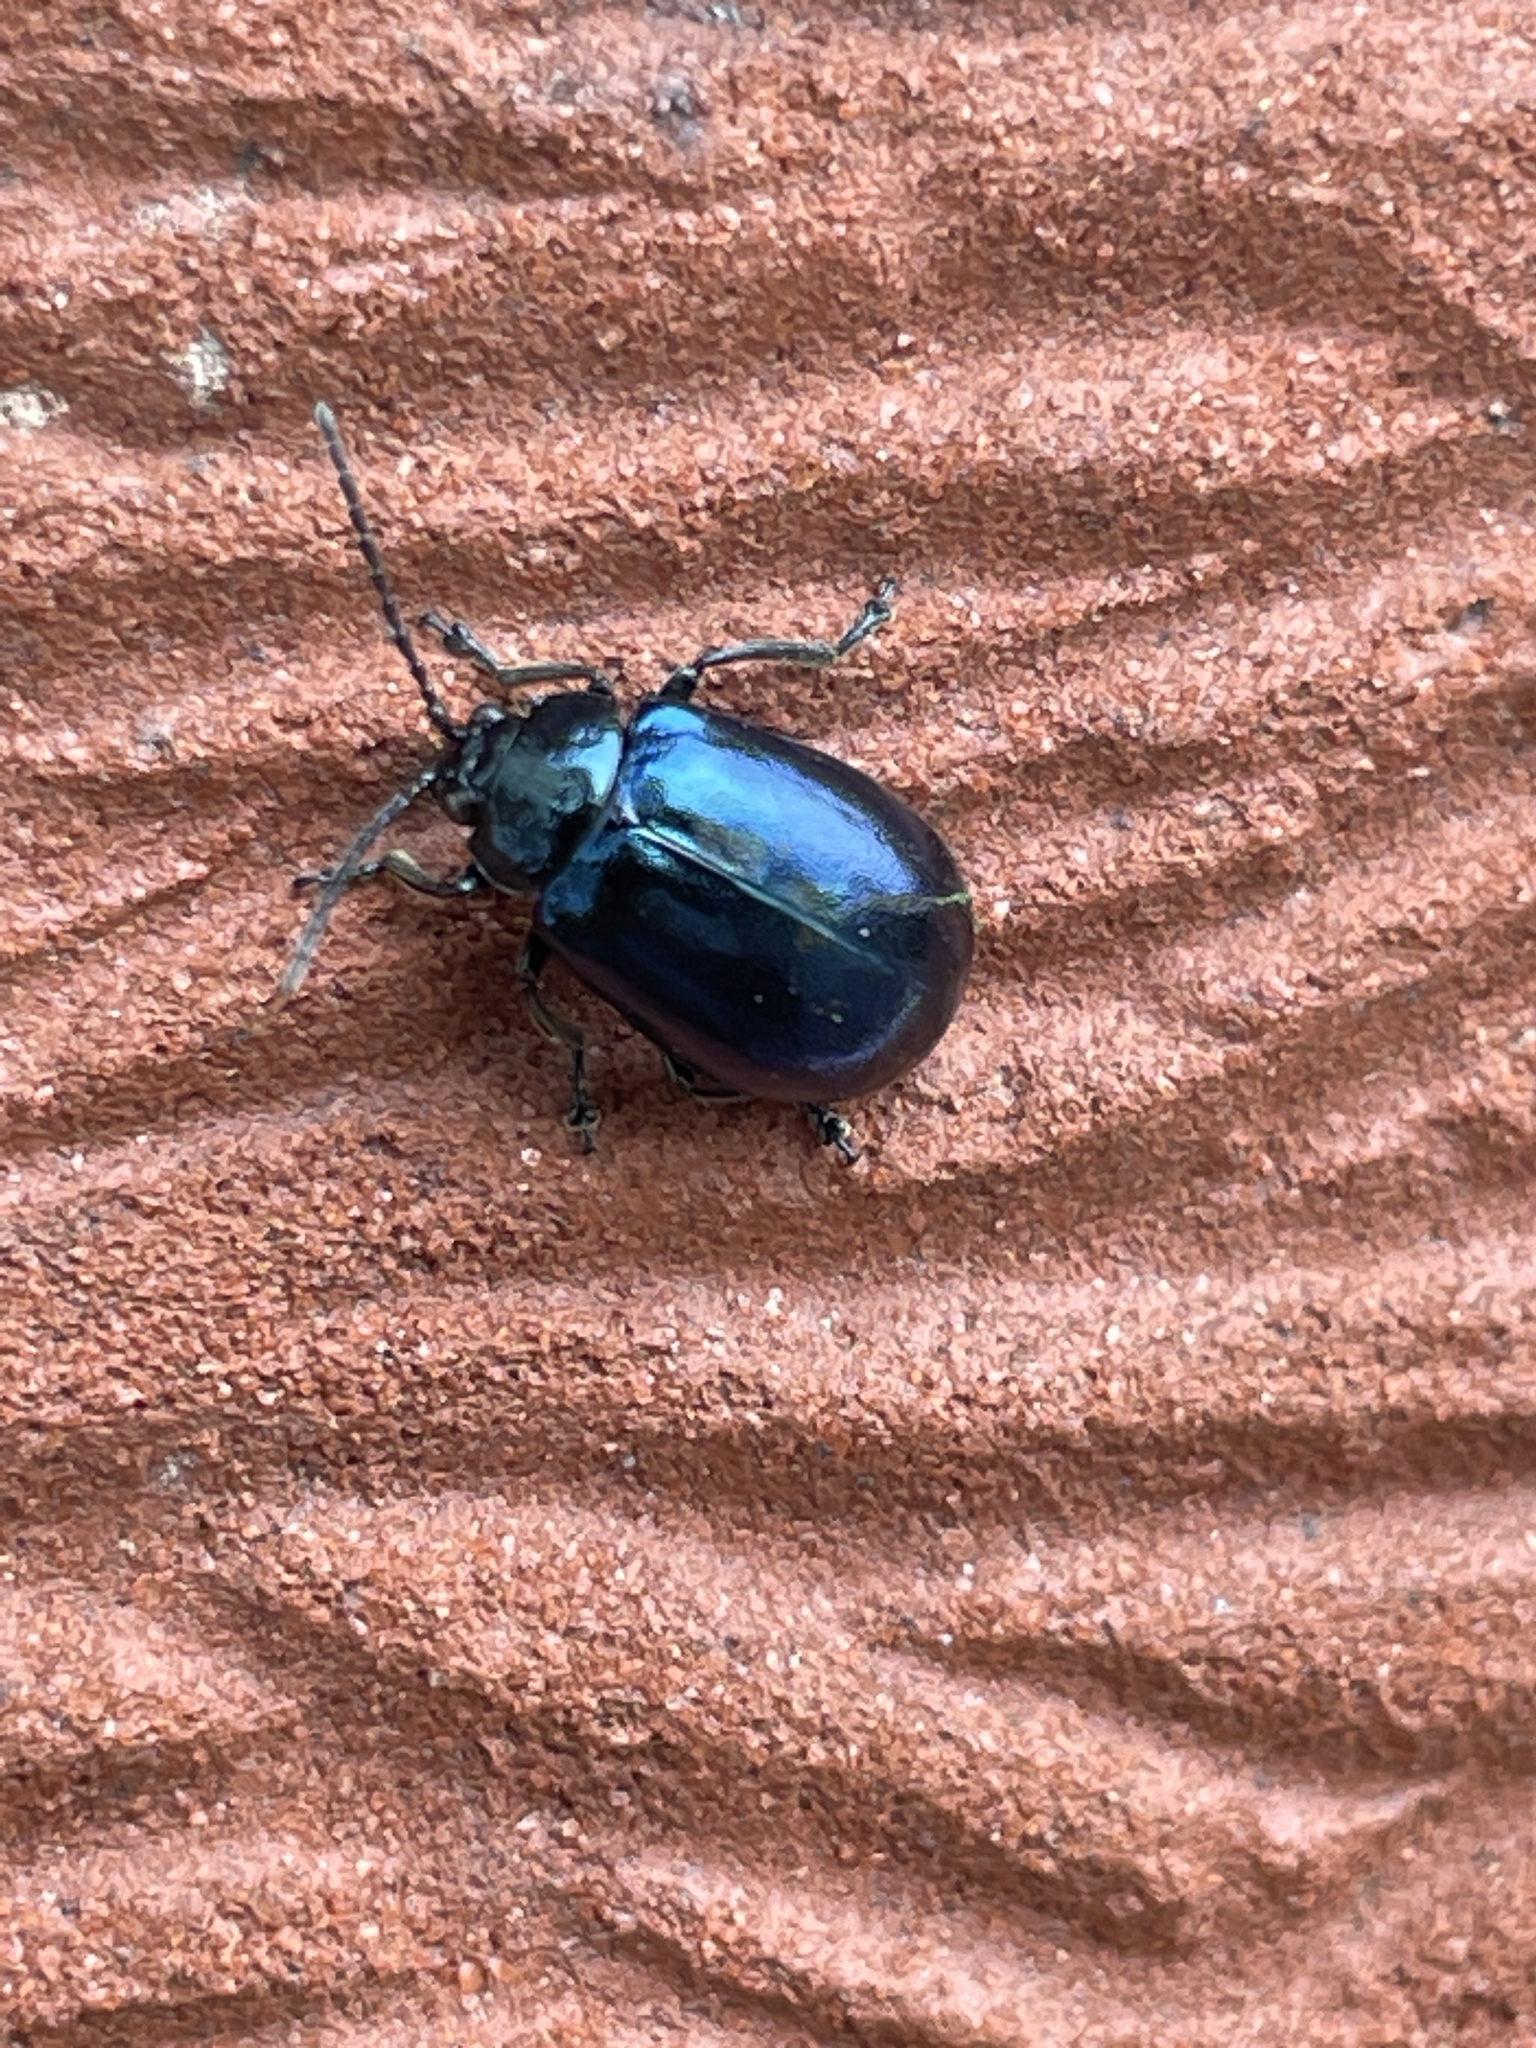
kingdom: Animalia
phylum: Arthropoda
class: Insecta
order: Coleoptera
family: Chrysomelidae
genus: Agelastica
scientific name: Agelastica alni
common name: Alder leaf beetle
